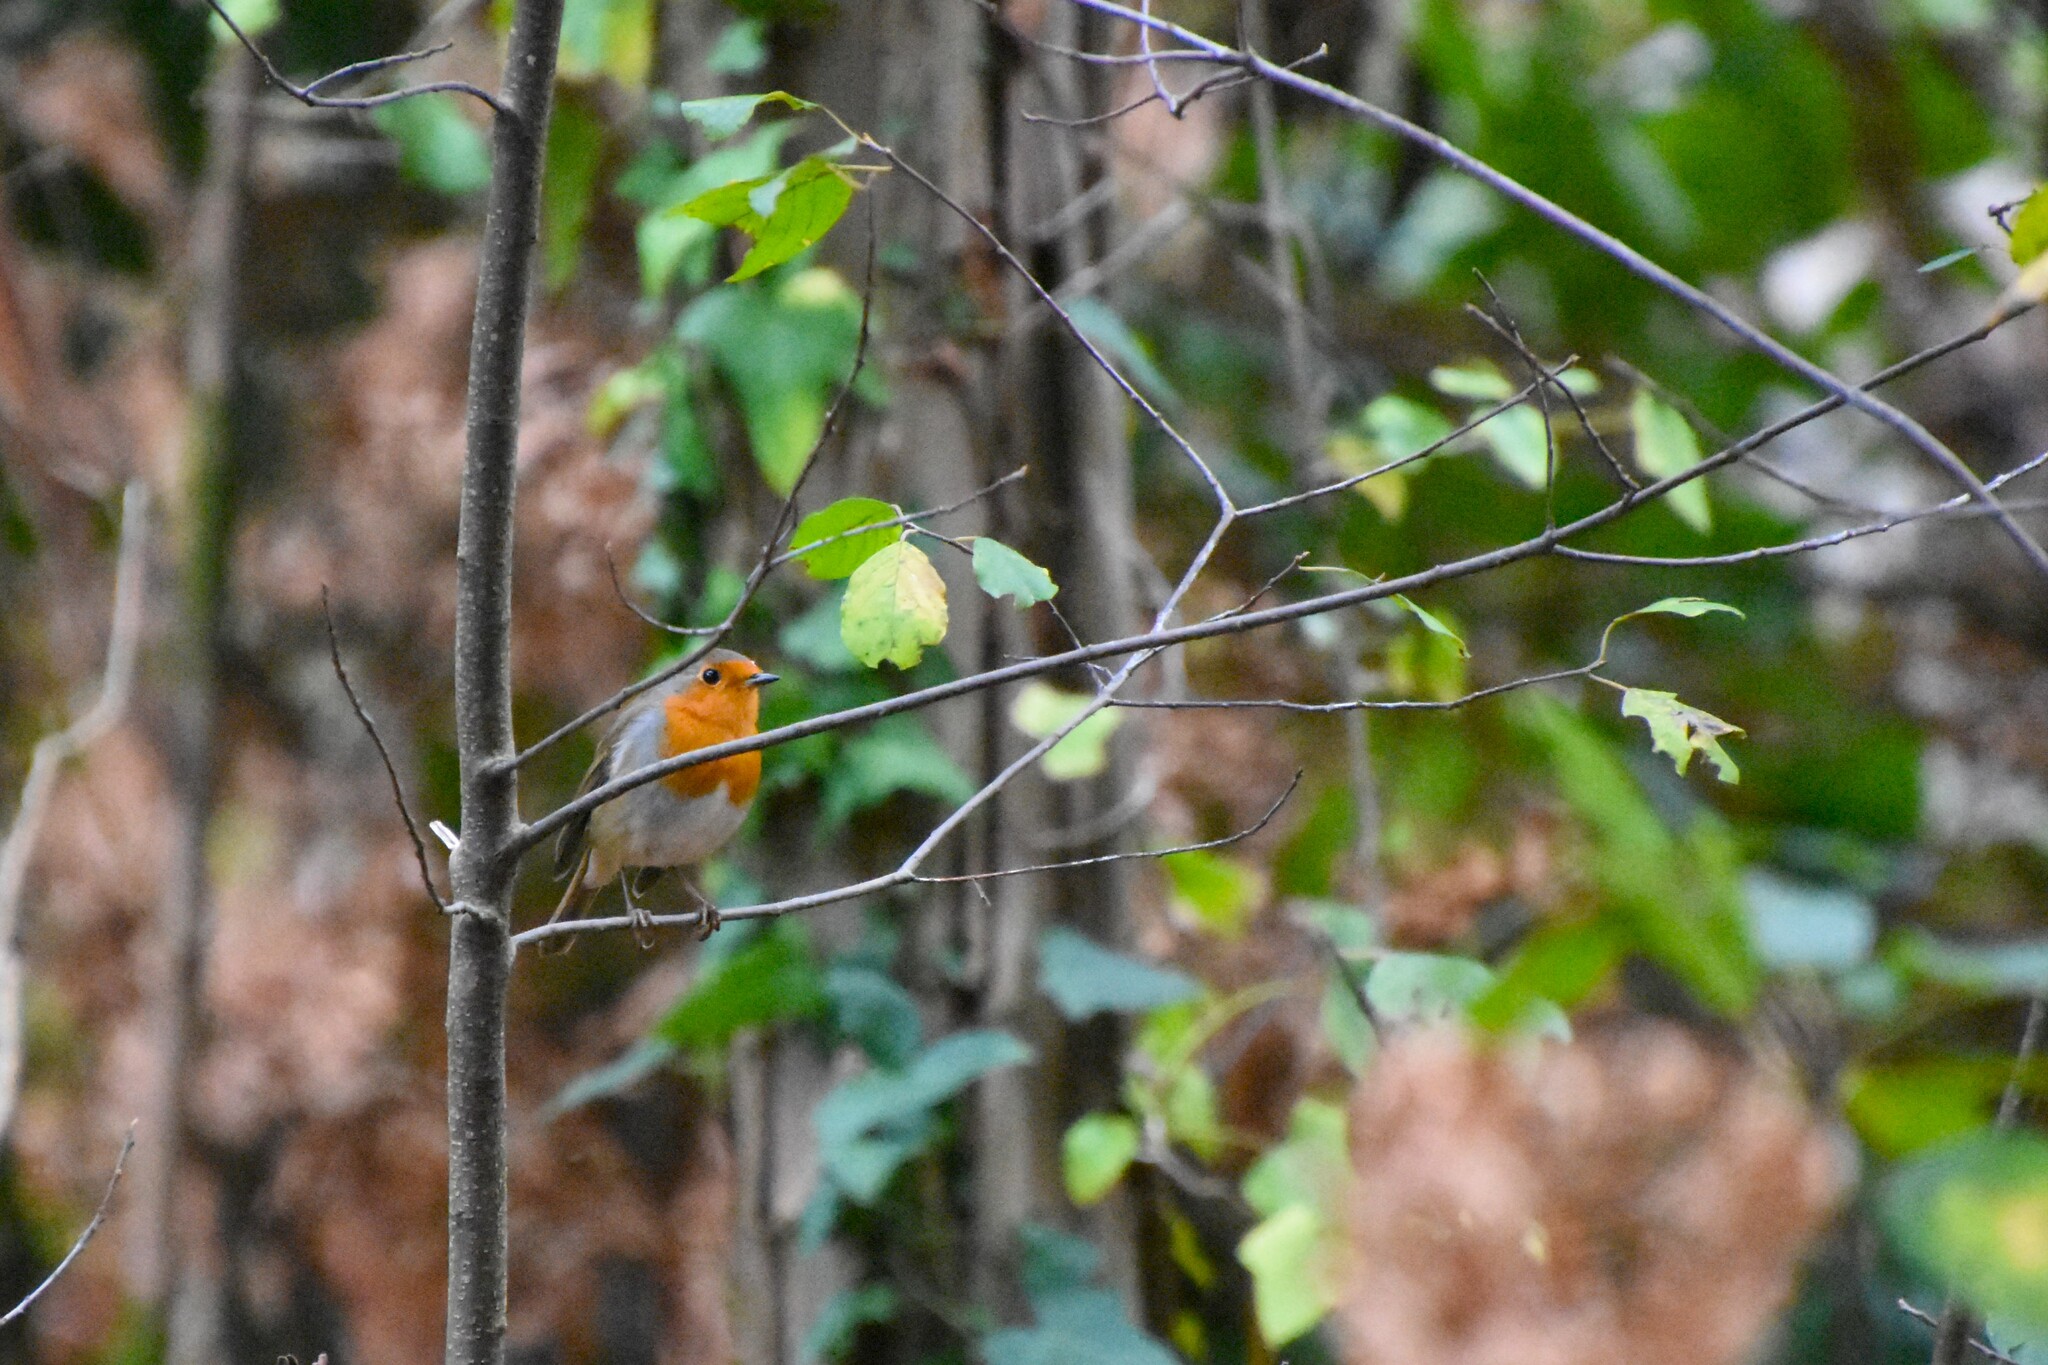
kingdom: Animalia
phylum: Chordata
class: Aves
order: Passeriformes
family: Muscicapidae
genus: Erithacus
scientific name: Erithacus rubecula
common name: European robin
